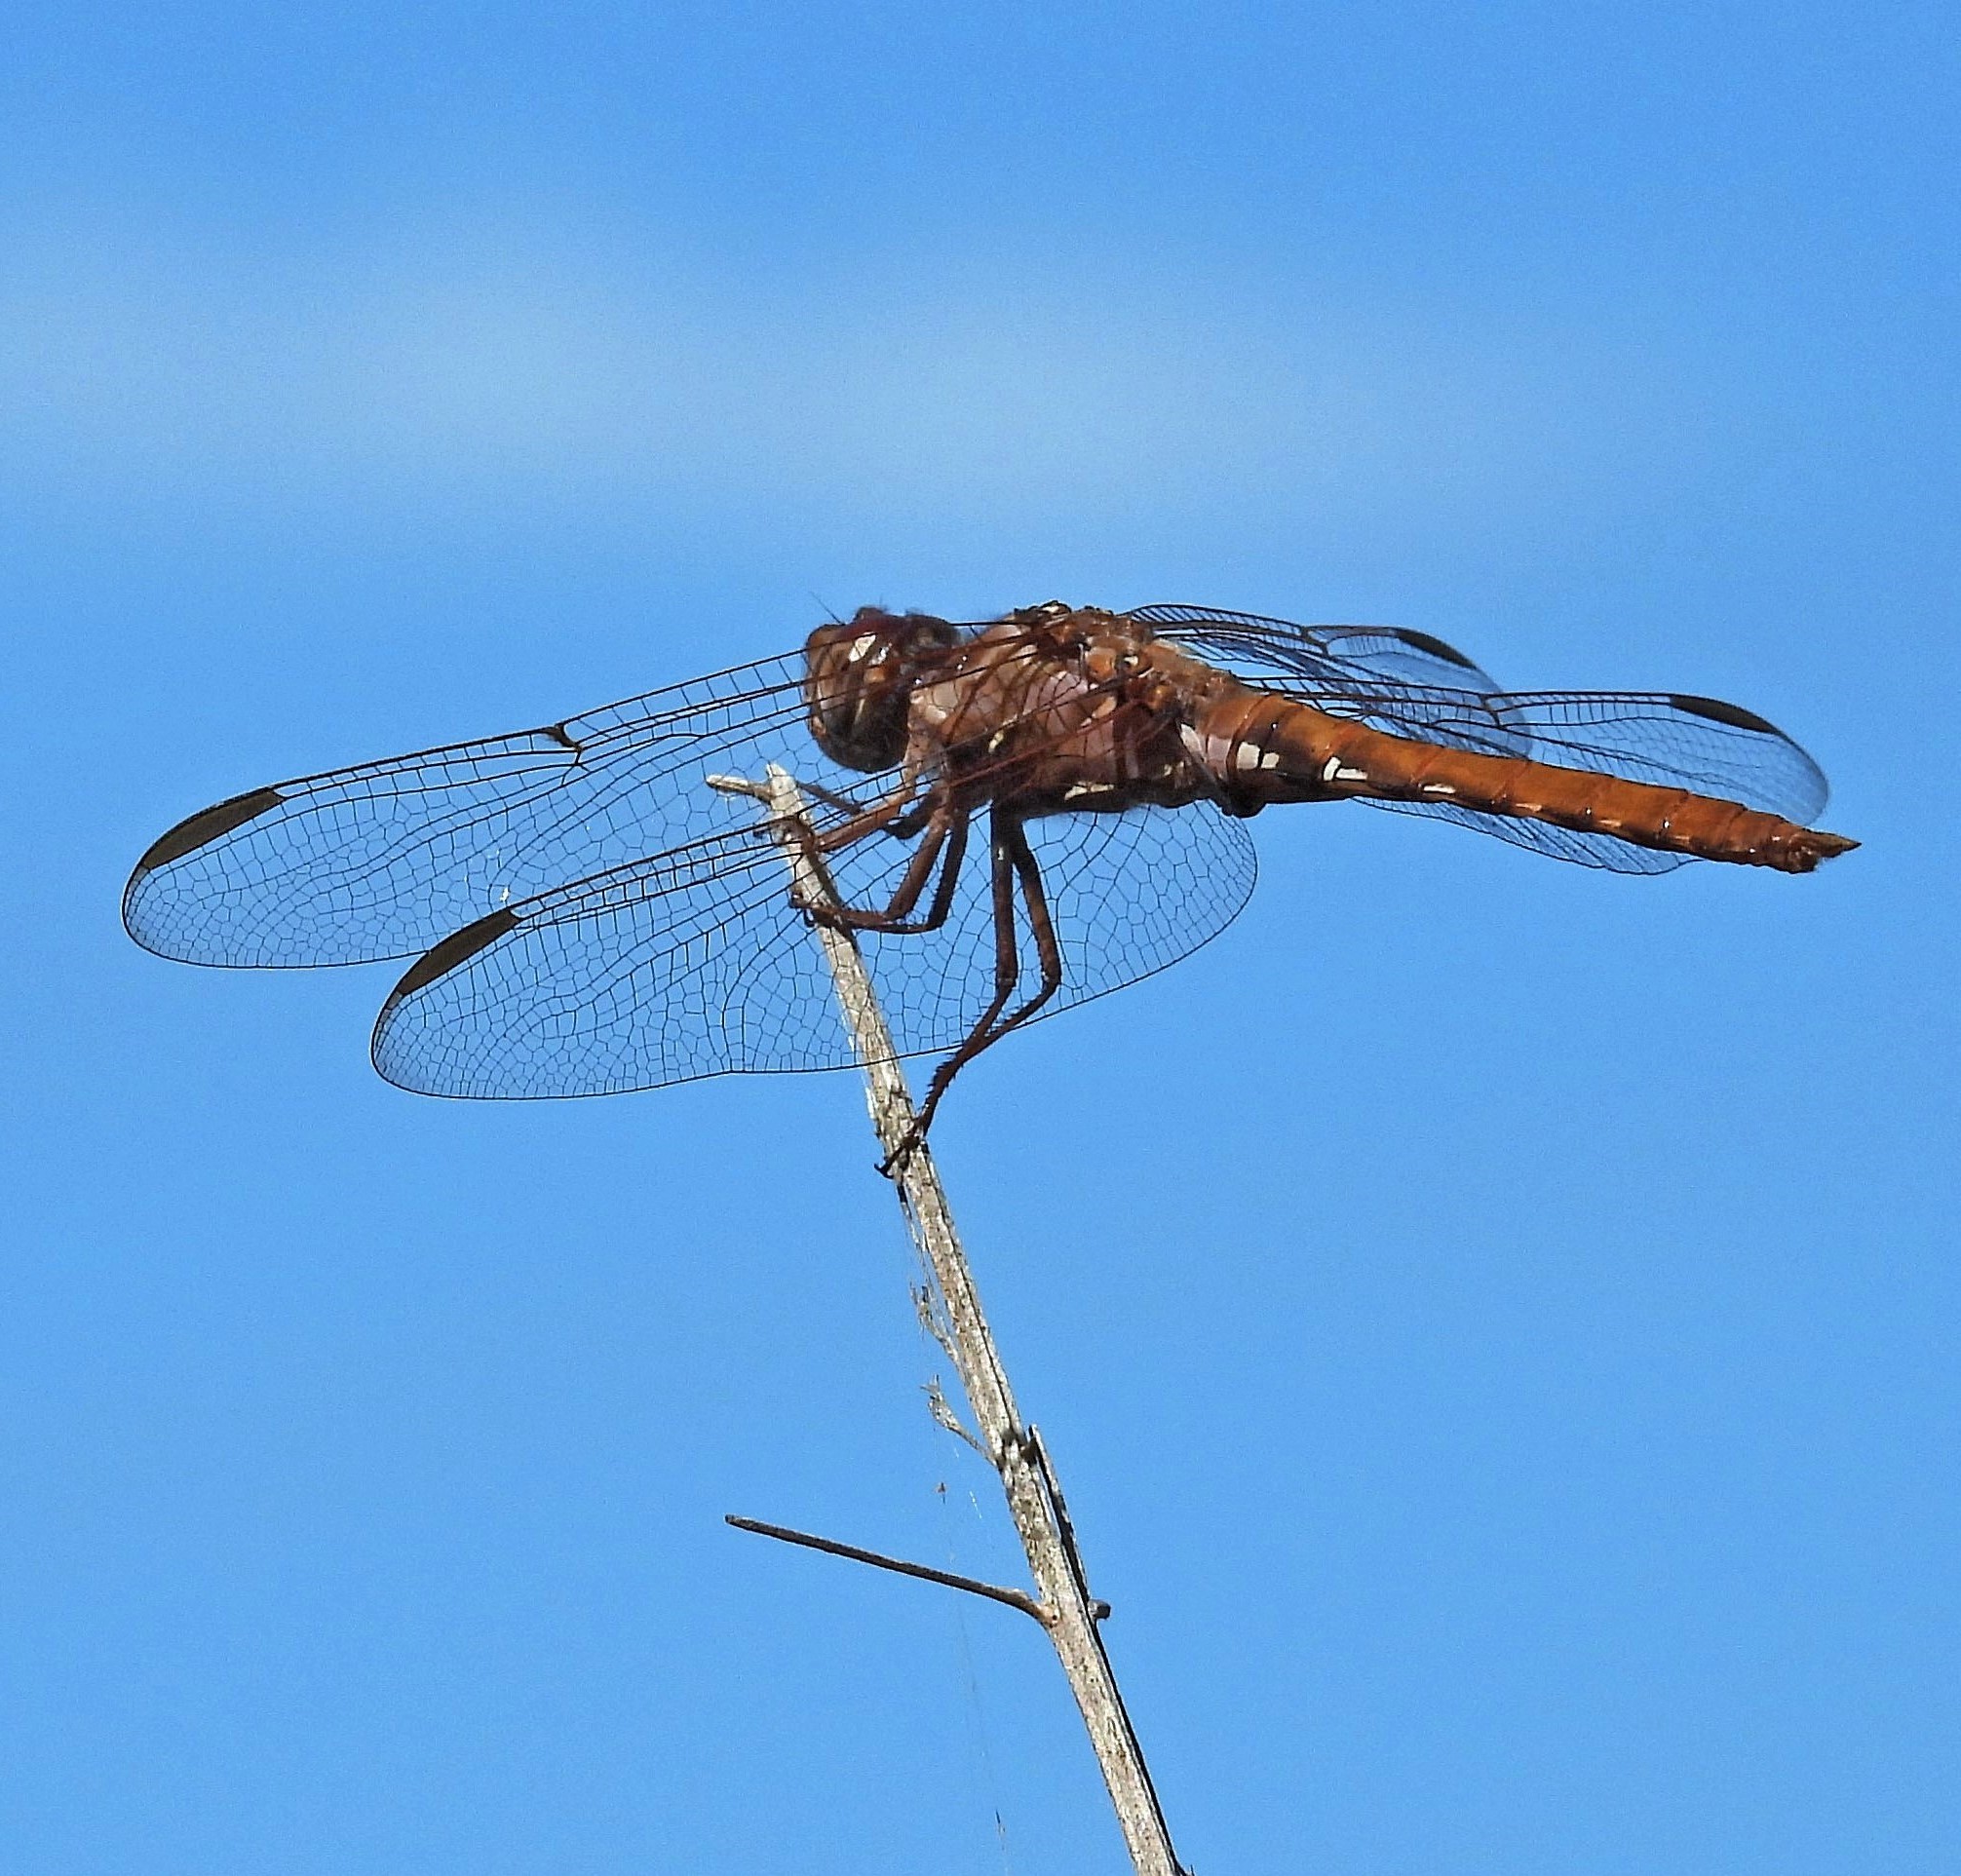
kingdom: Animalia
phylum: Arthropoda
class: Insecta
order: Odonata
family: Libellulidae
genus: Orthemis
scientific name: Orthemis nodiplaga
